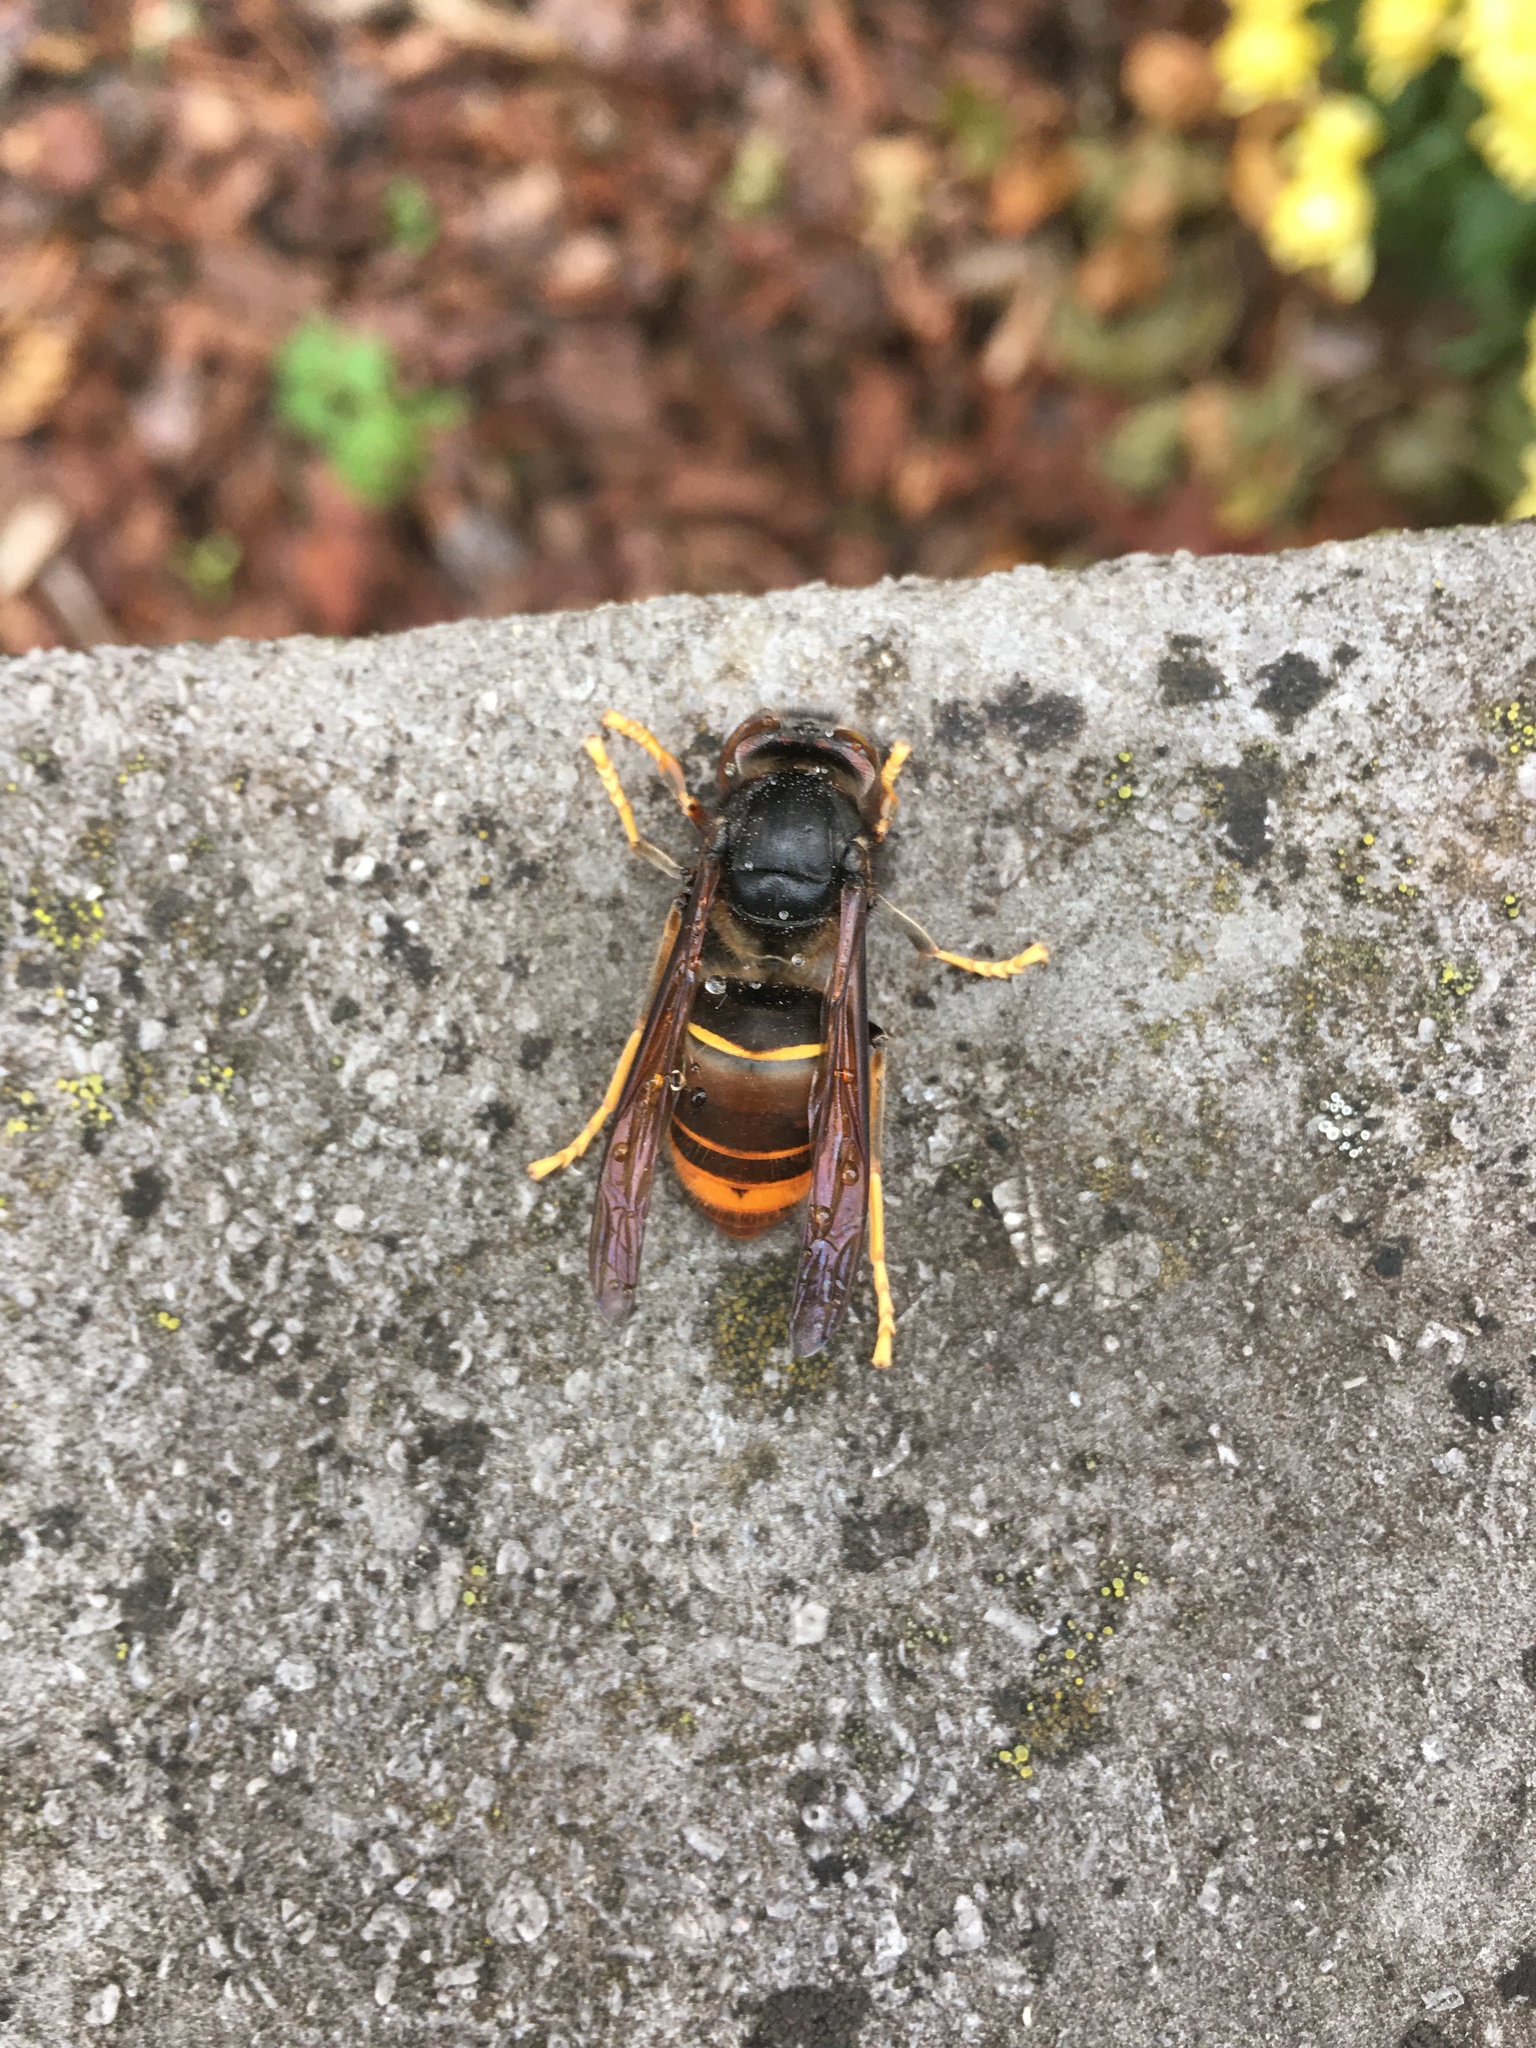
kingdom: Animalia
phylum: Arthropoda
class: Insecta
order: Hymenoptera
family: Vespidae
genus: Vespa
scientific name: Vespa velutina
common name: Asian hornet
